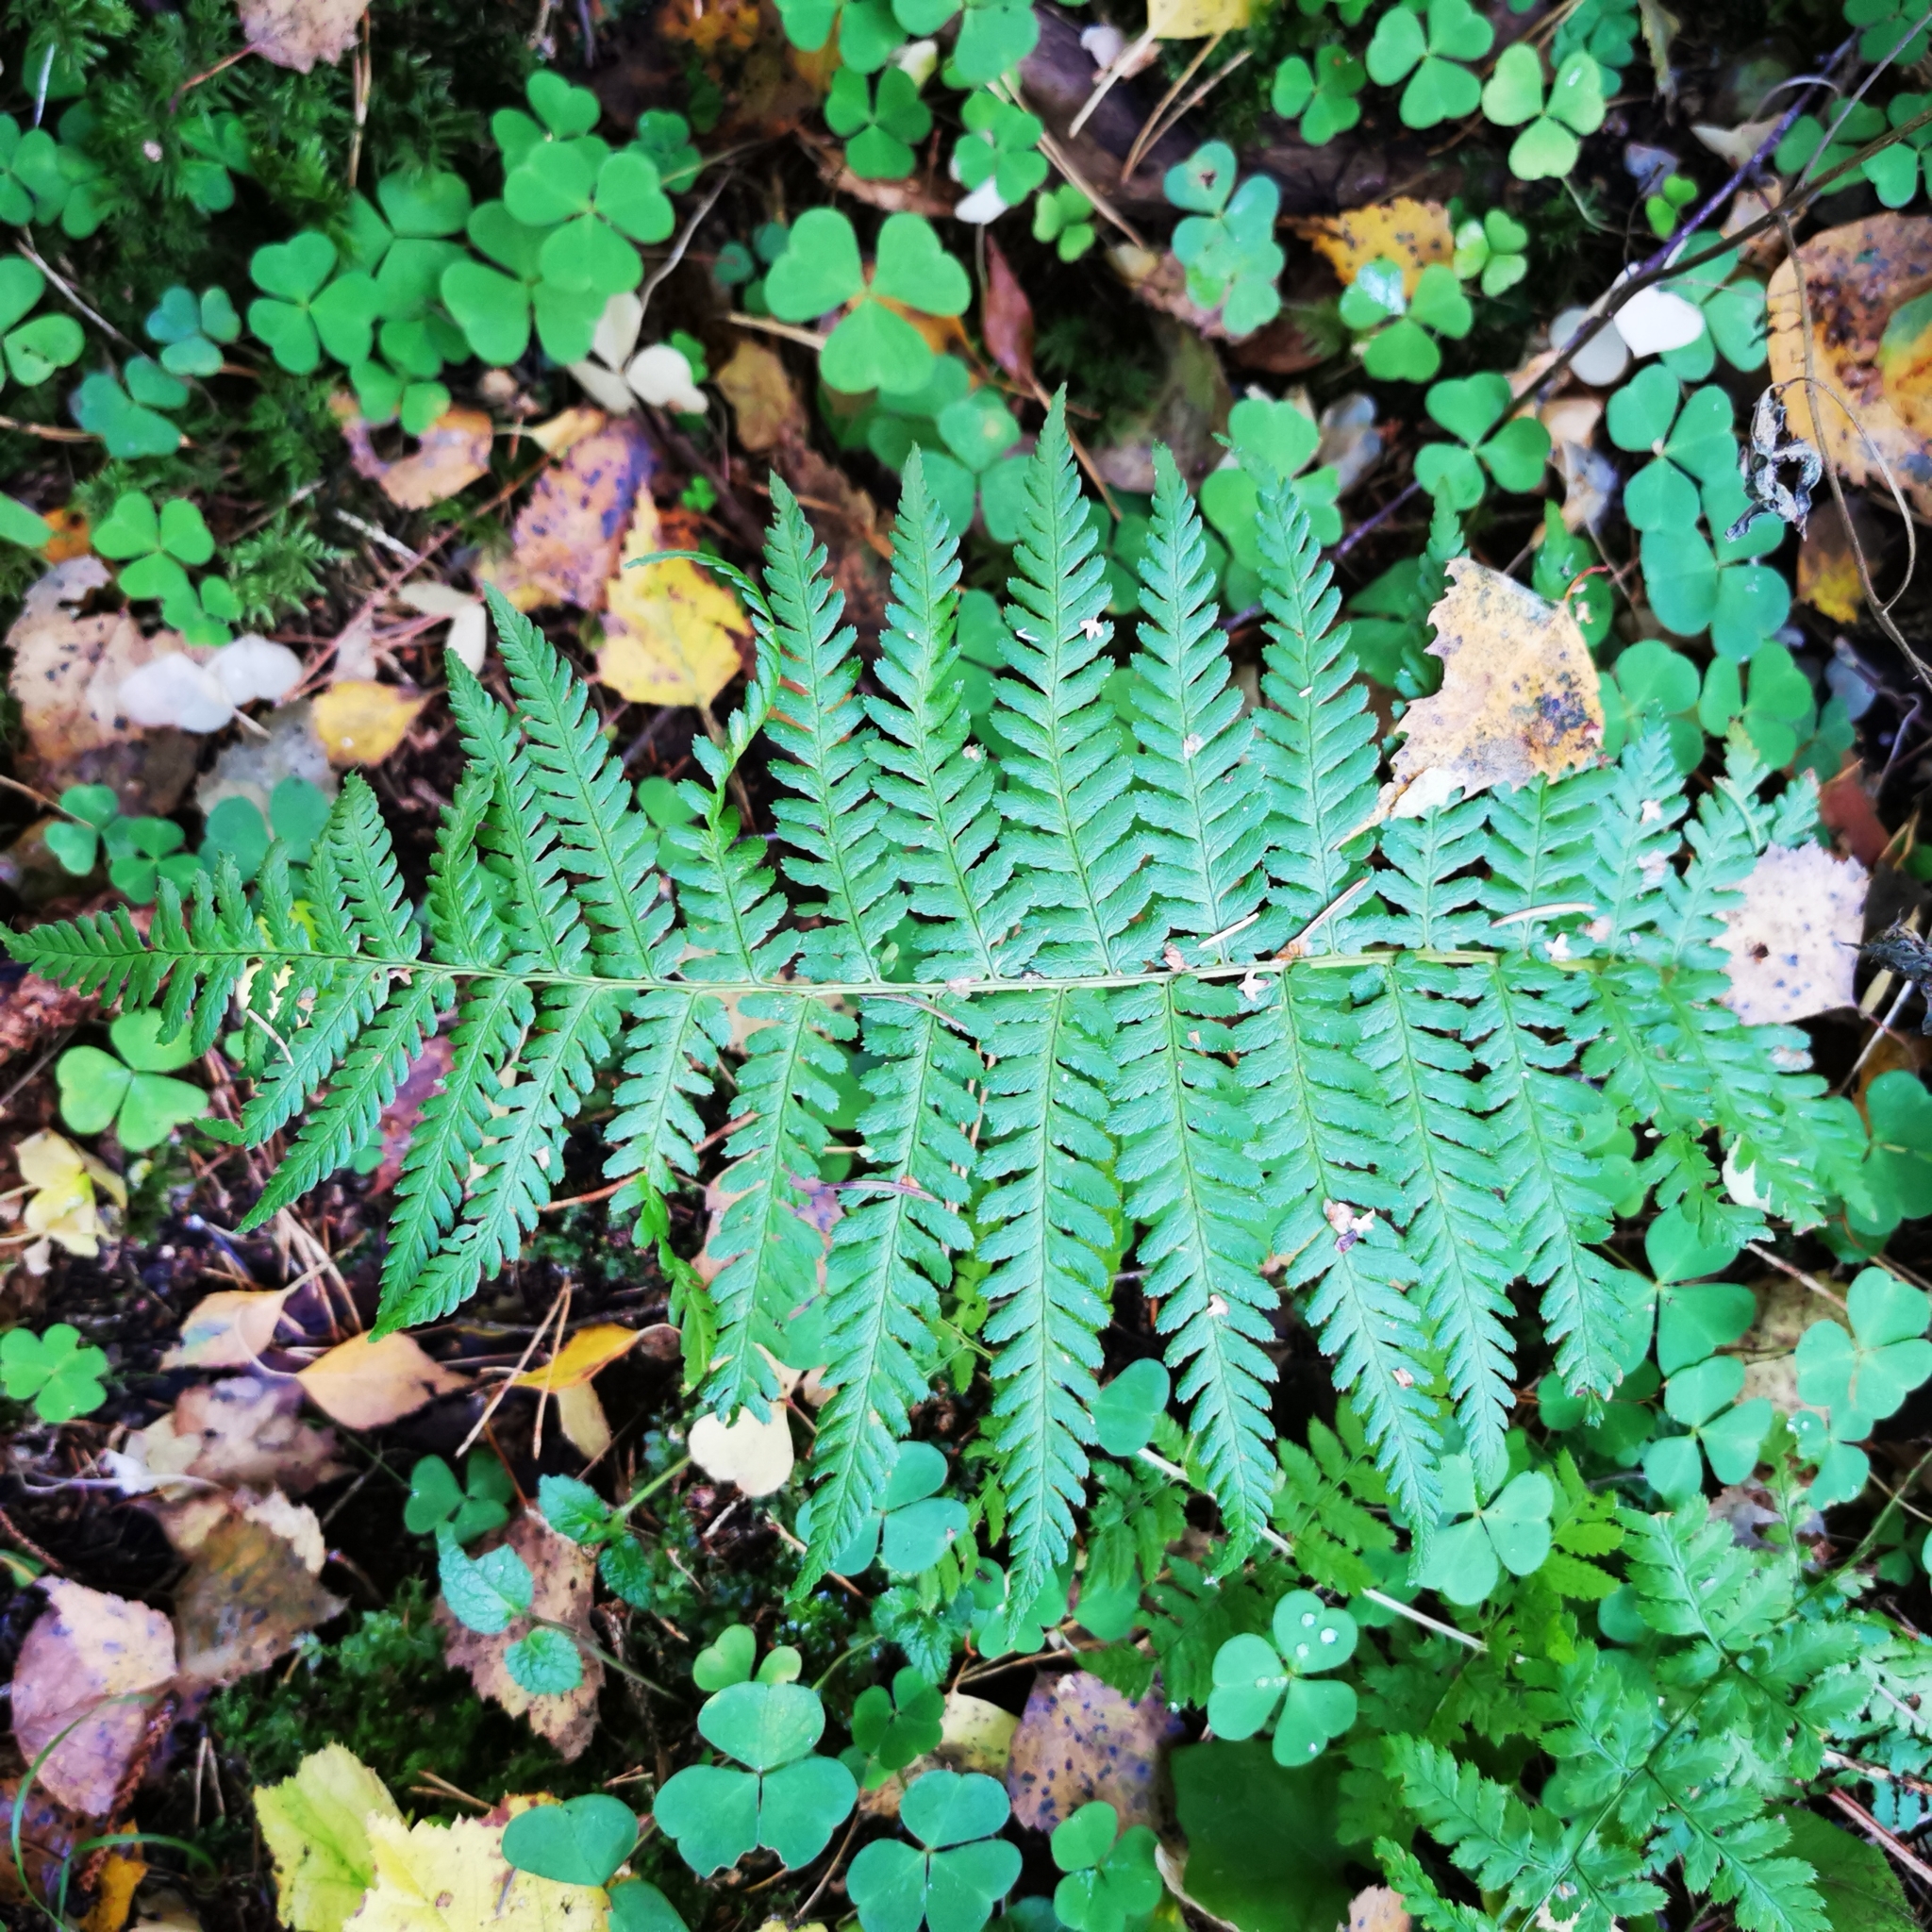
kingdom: Plantae
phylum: Tracheophyta
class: Polypodiopsida
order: Polypodiales
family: Dryopteridaceae
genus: Dryopteris
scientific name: Dryopteris filix-mas
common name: Male fern
